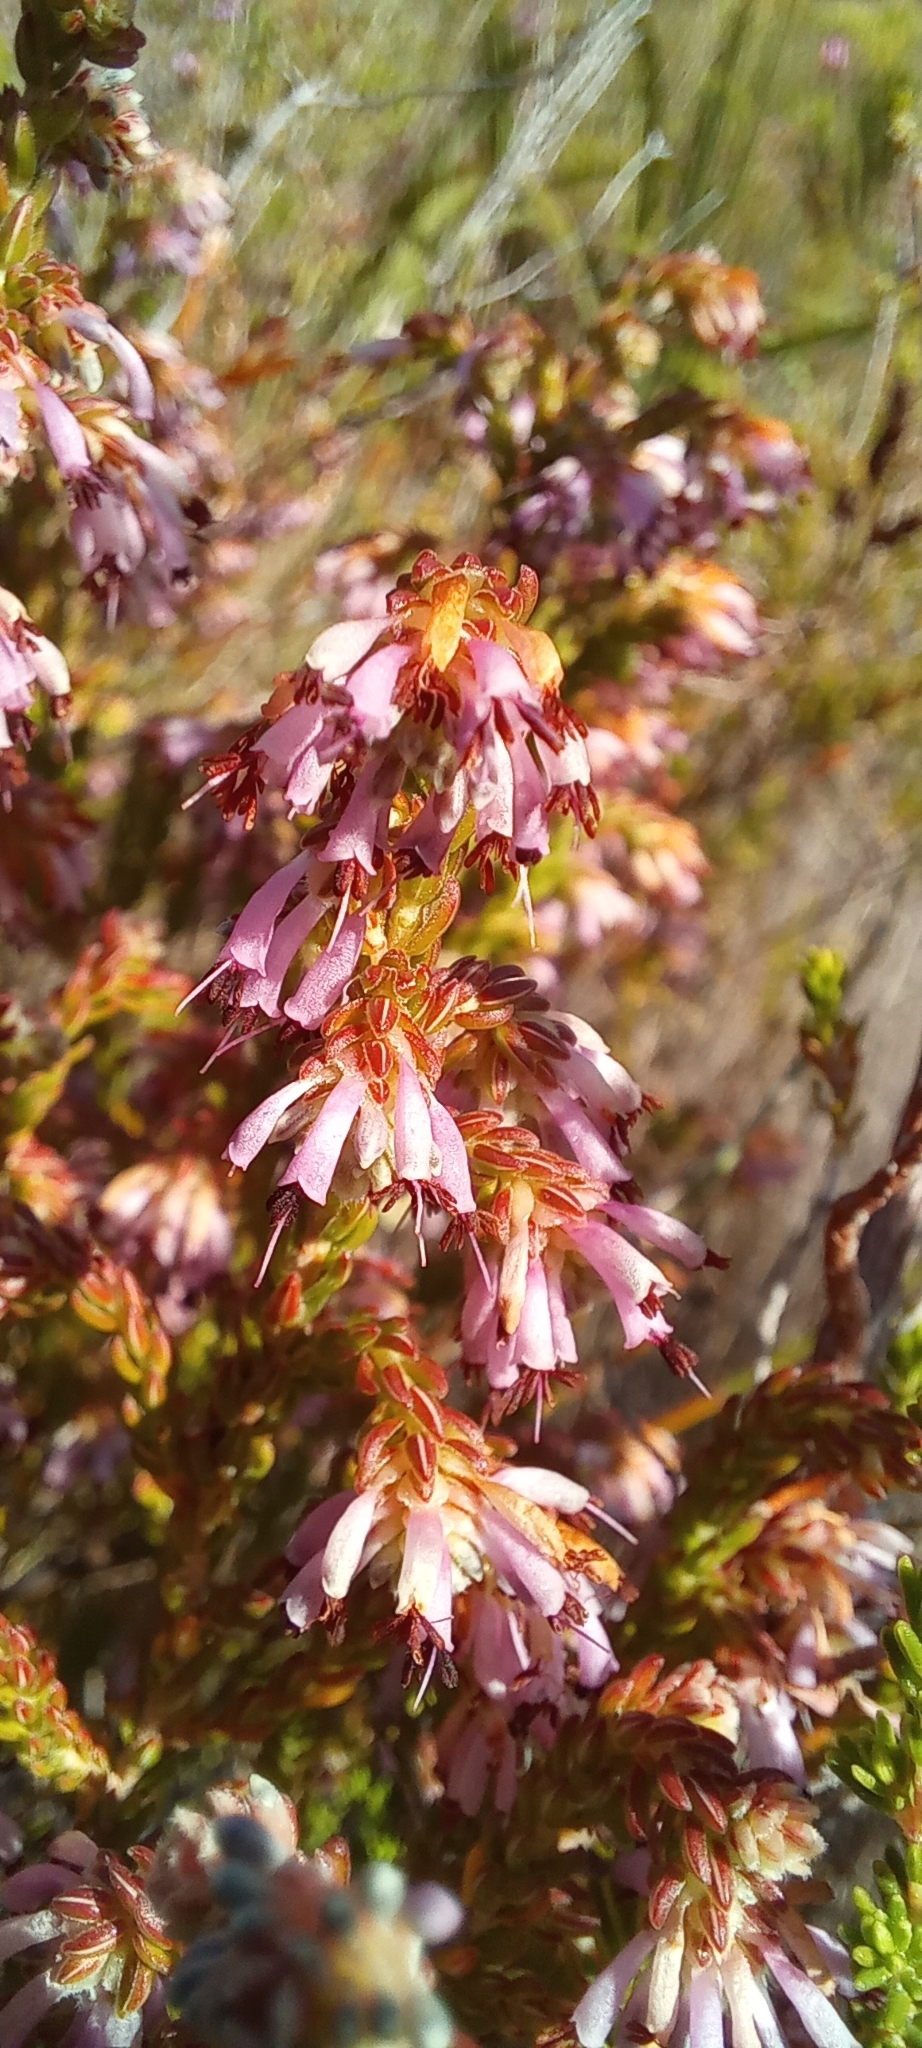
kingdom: Plantae
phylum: Tracheophyta
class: Magnoliopsida
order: Ericales
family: Ericaceae
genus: Erica
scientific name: Erica labialis
